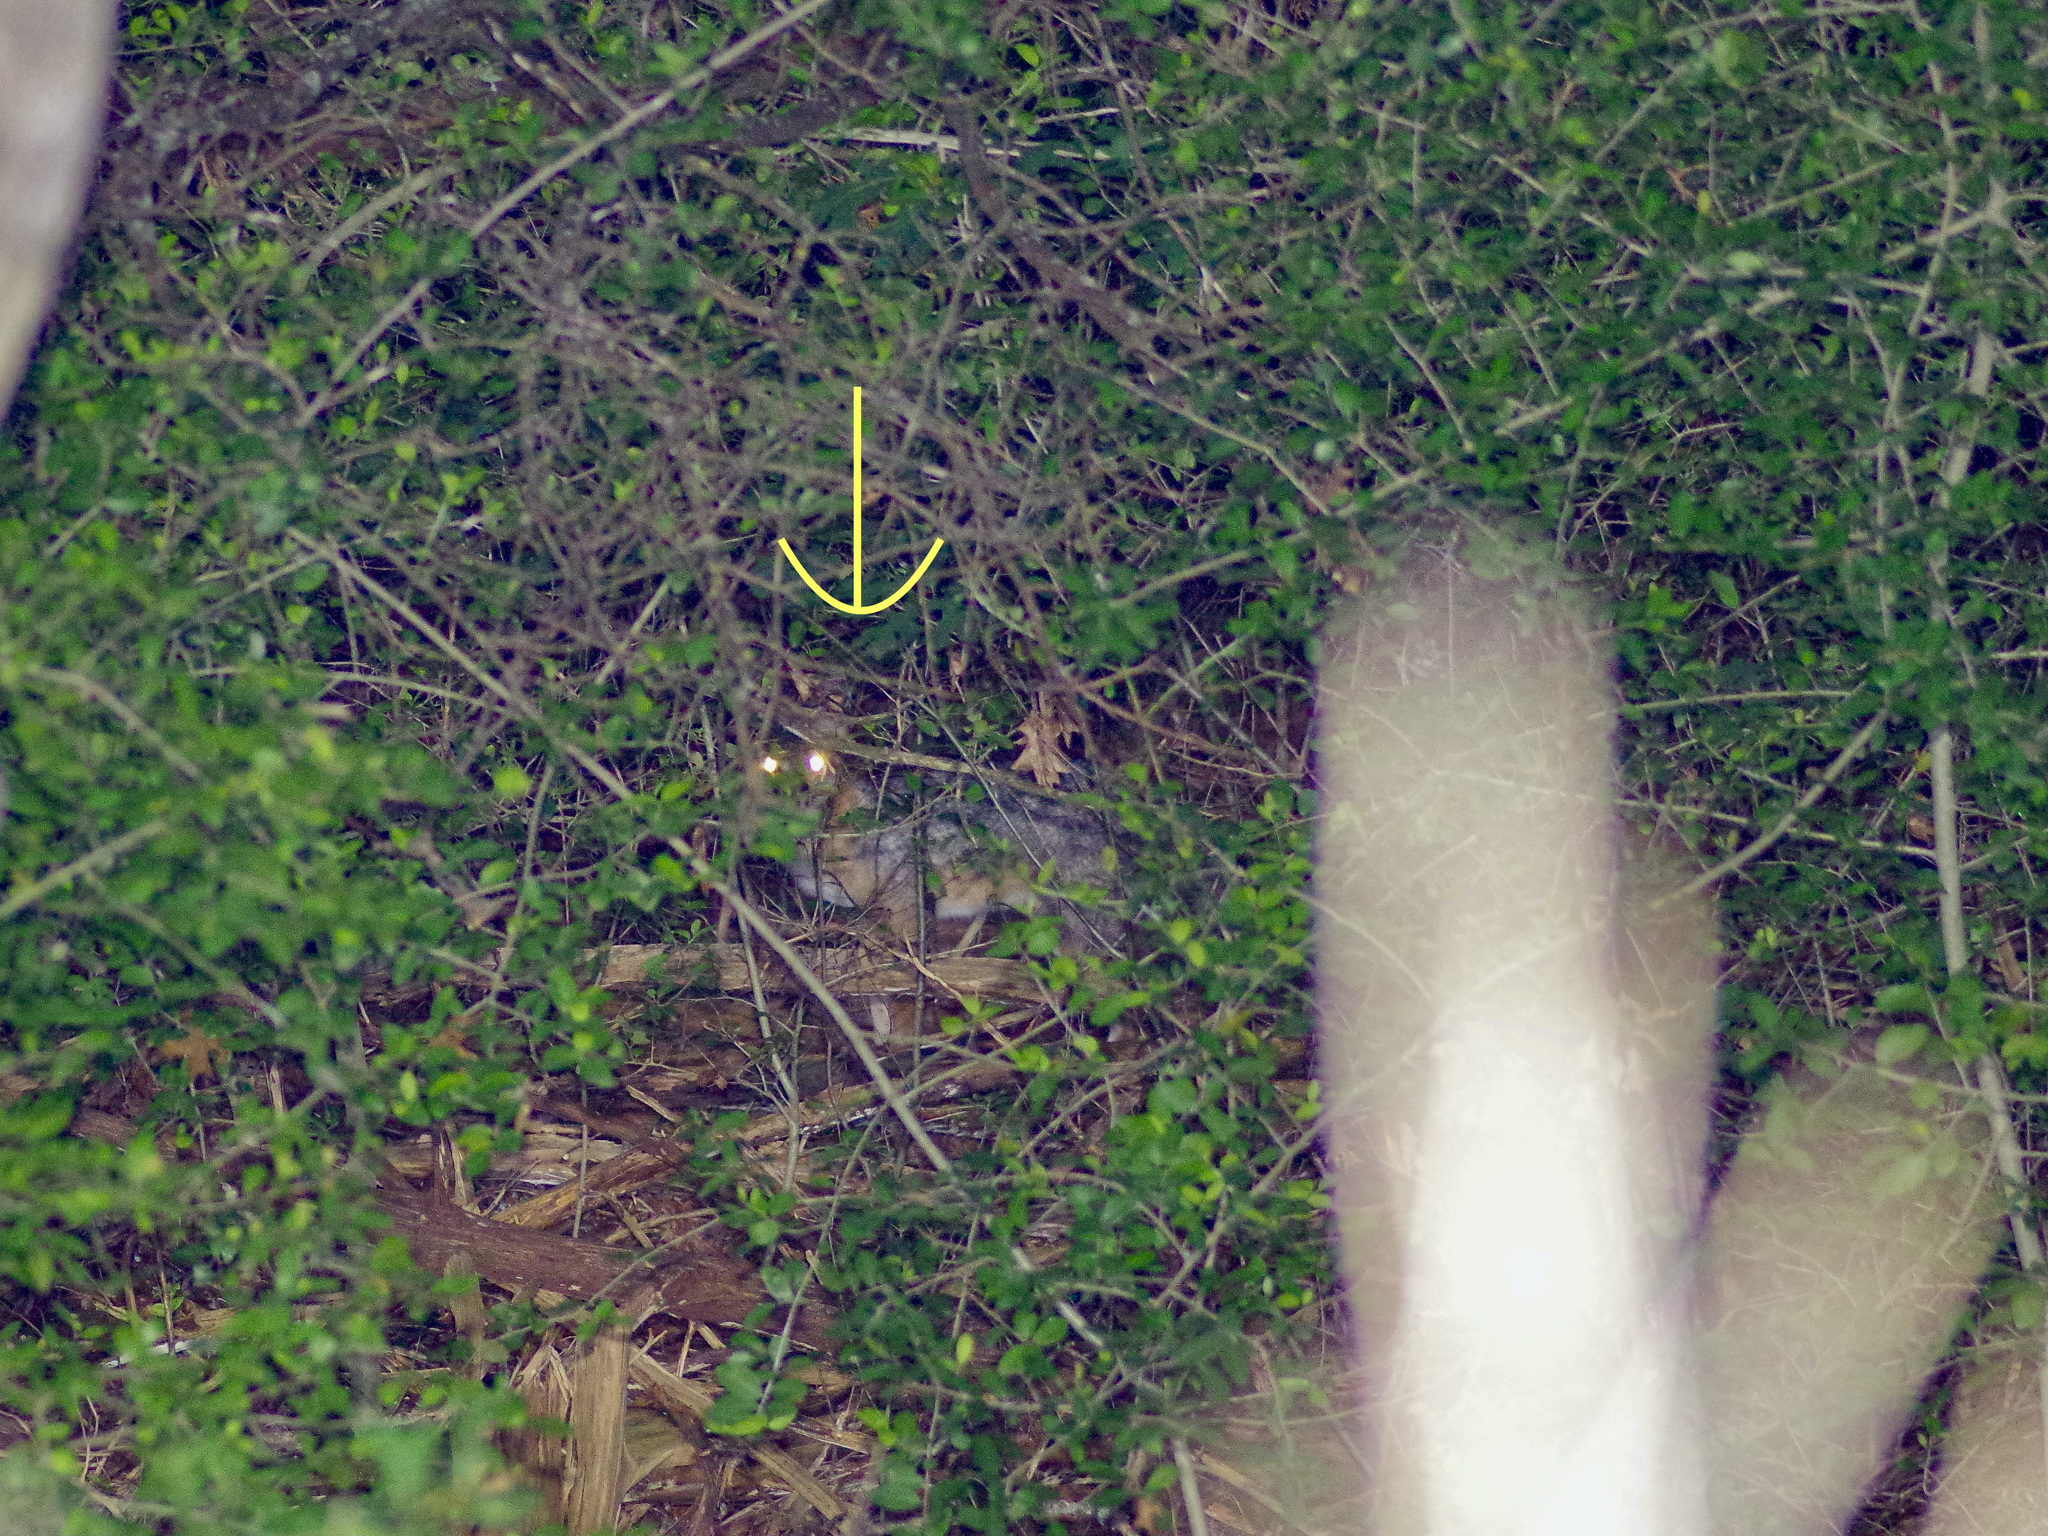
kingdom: Animalia
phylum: Chordata
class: Mammalia
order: Carnivora
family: Canidae
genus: Urocyon
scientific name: Urocyon cinereoargenteus
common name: Gray fox
